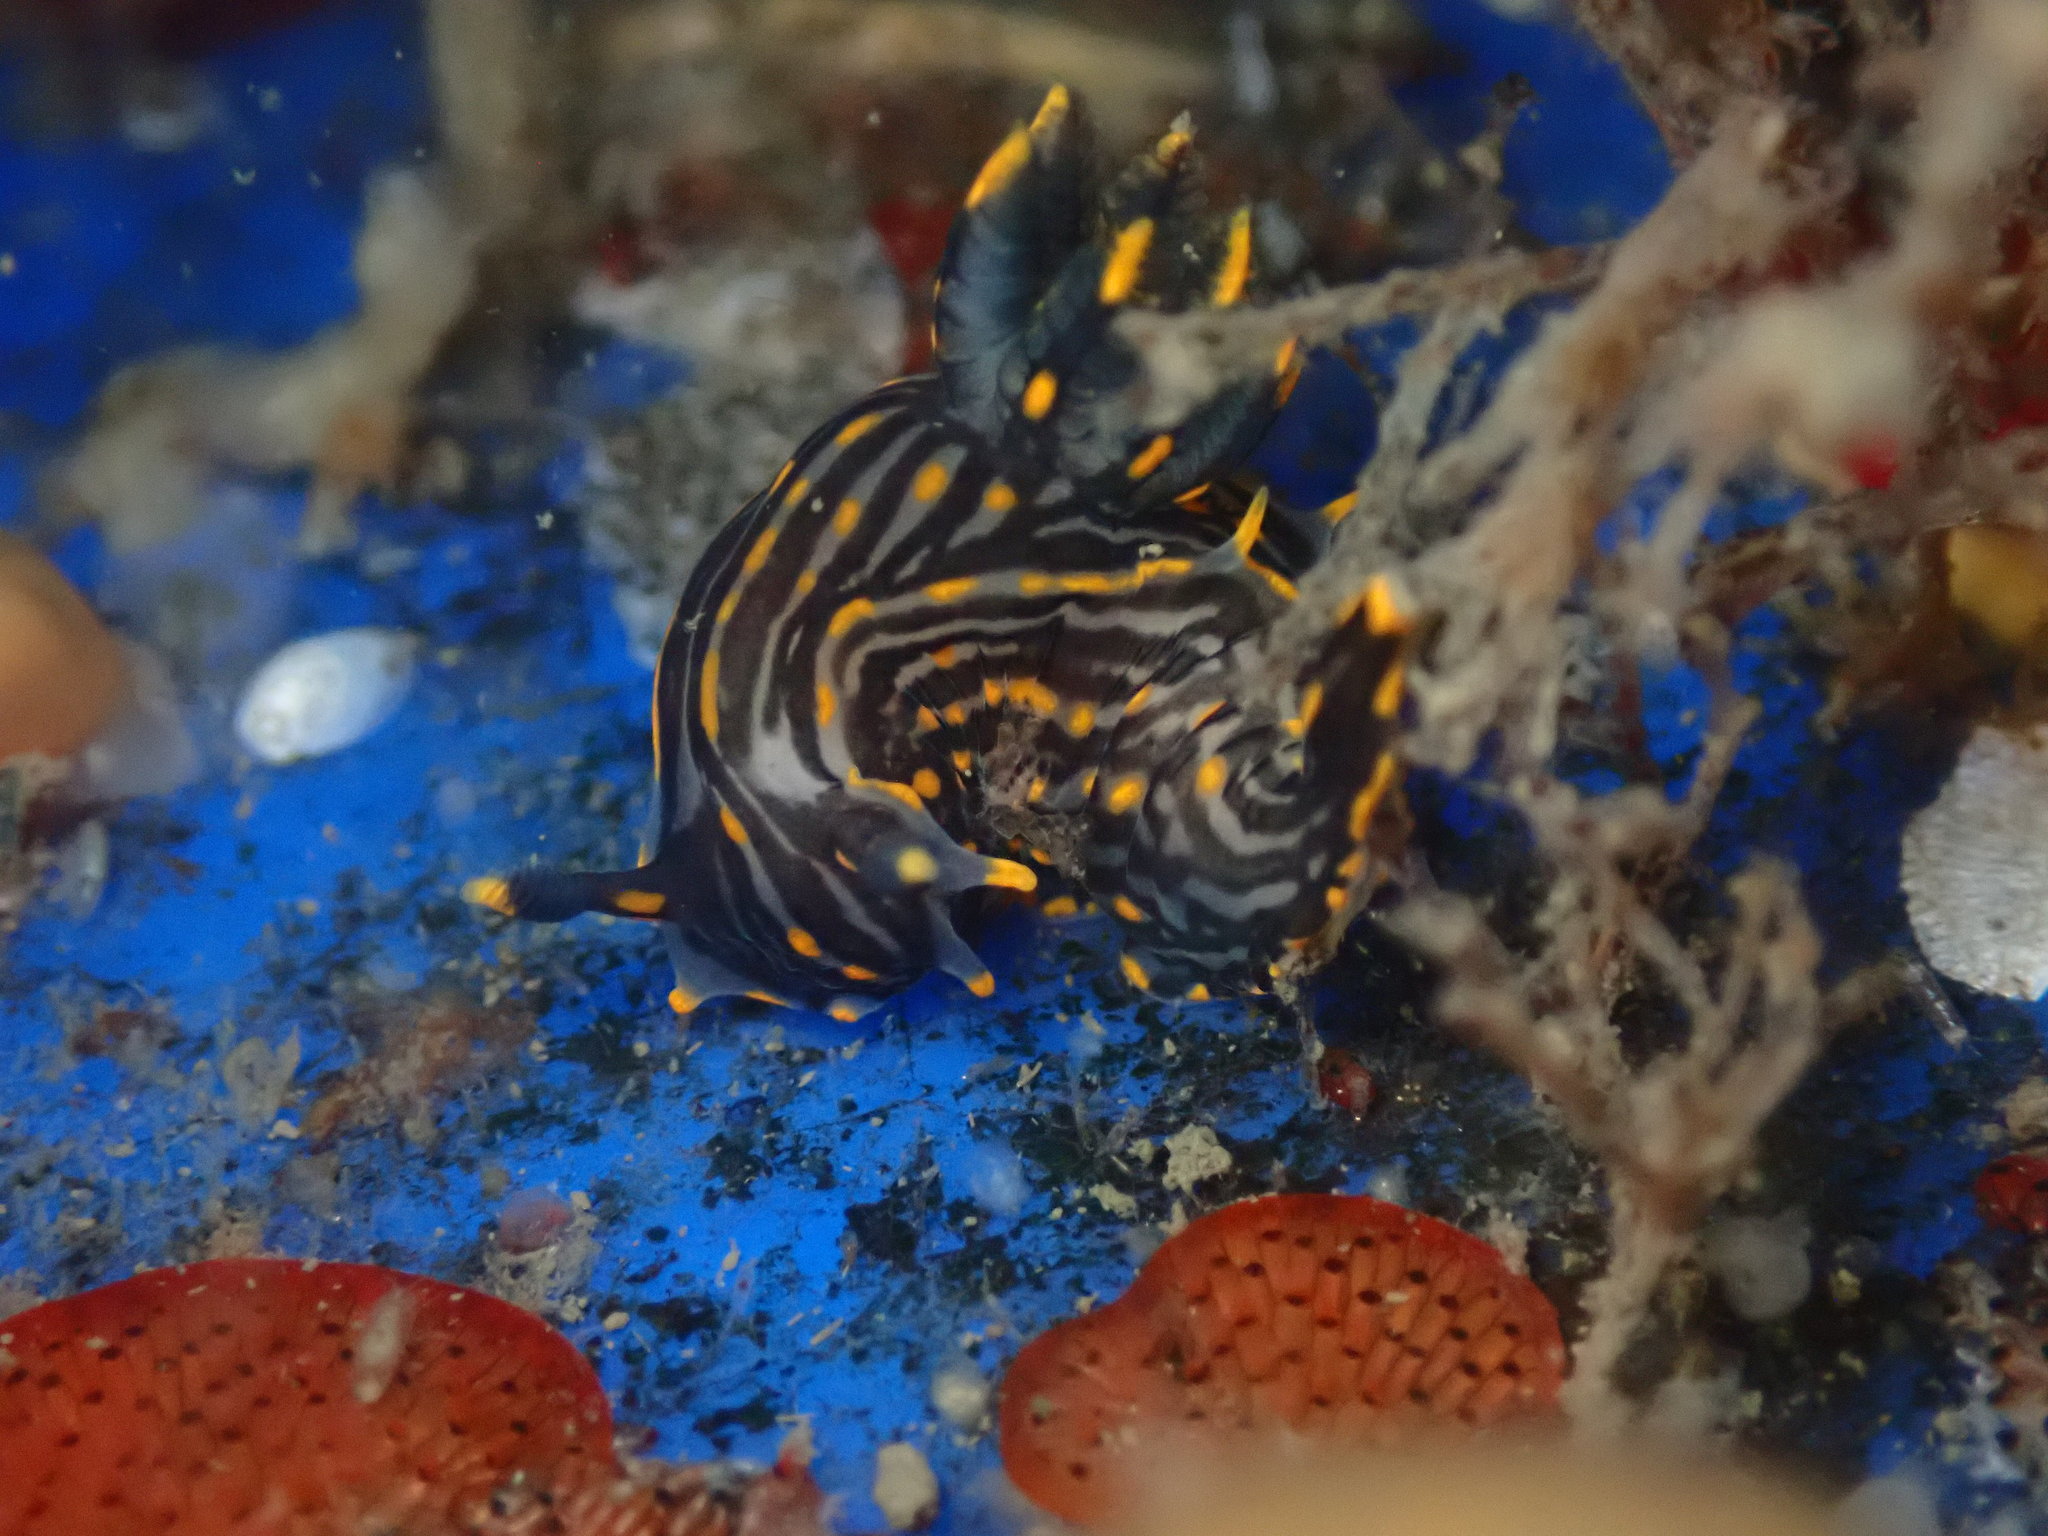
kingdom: Animalia
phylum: Mollusca
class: Gastropoda
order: Nudibranchia
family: Polyceridae
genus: Polycera
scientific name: Polycera atra
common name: Orange-spike polycera
